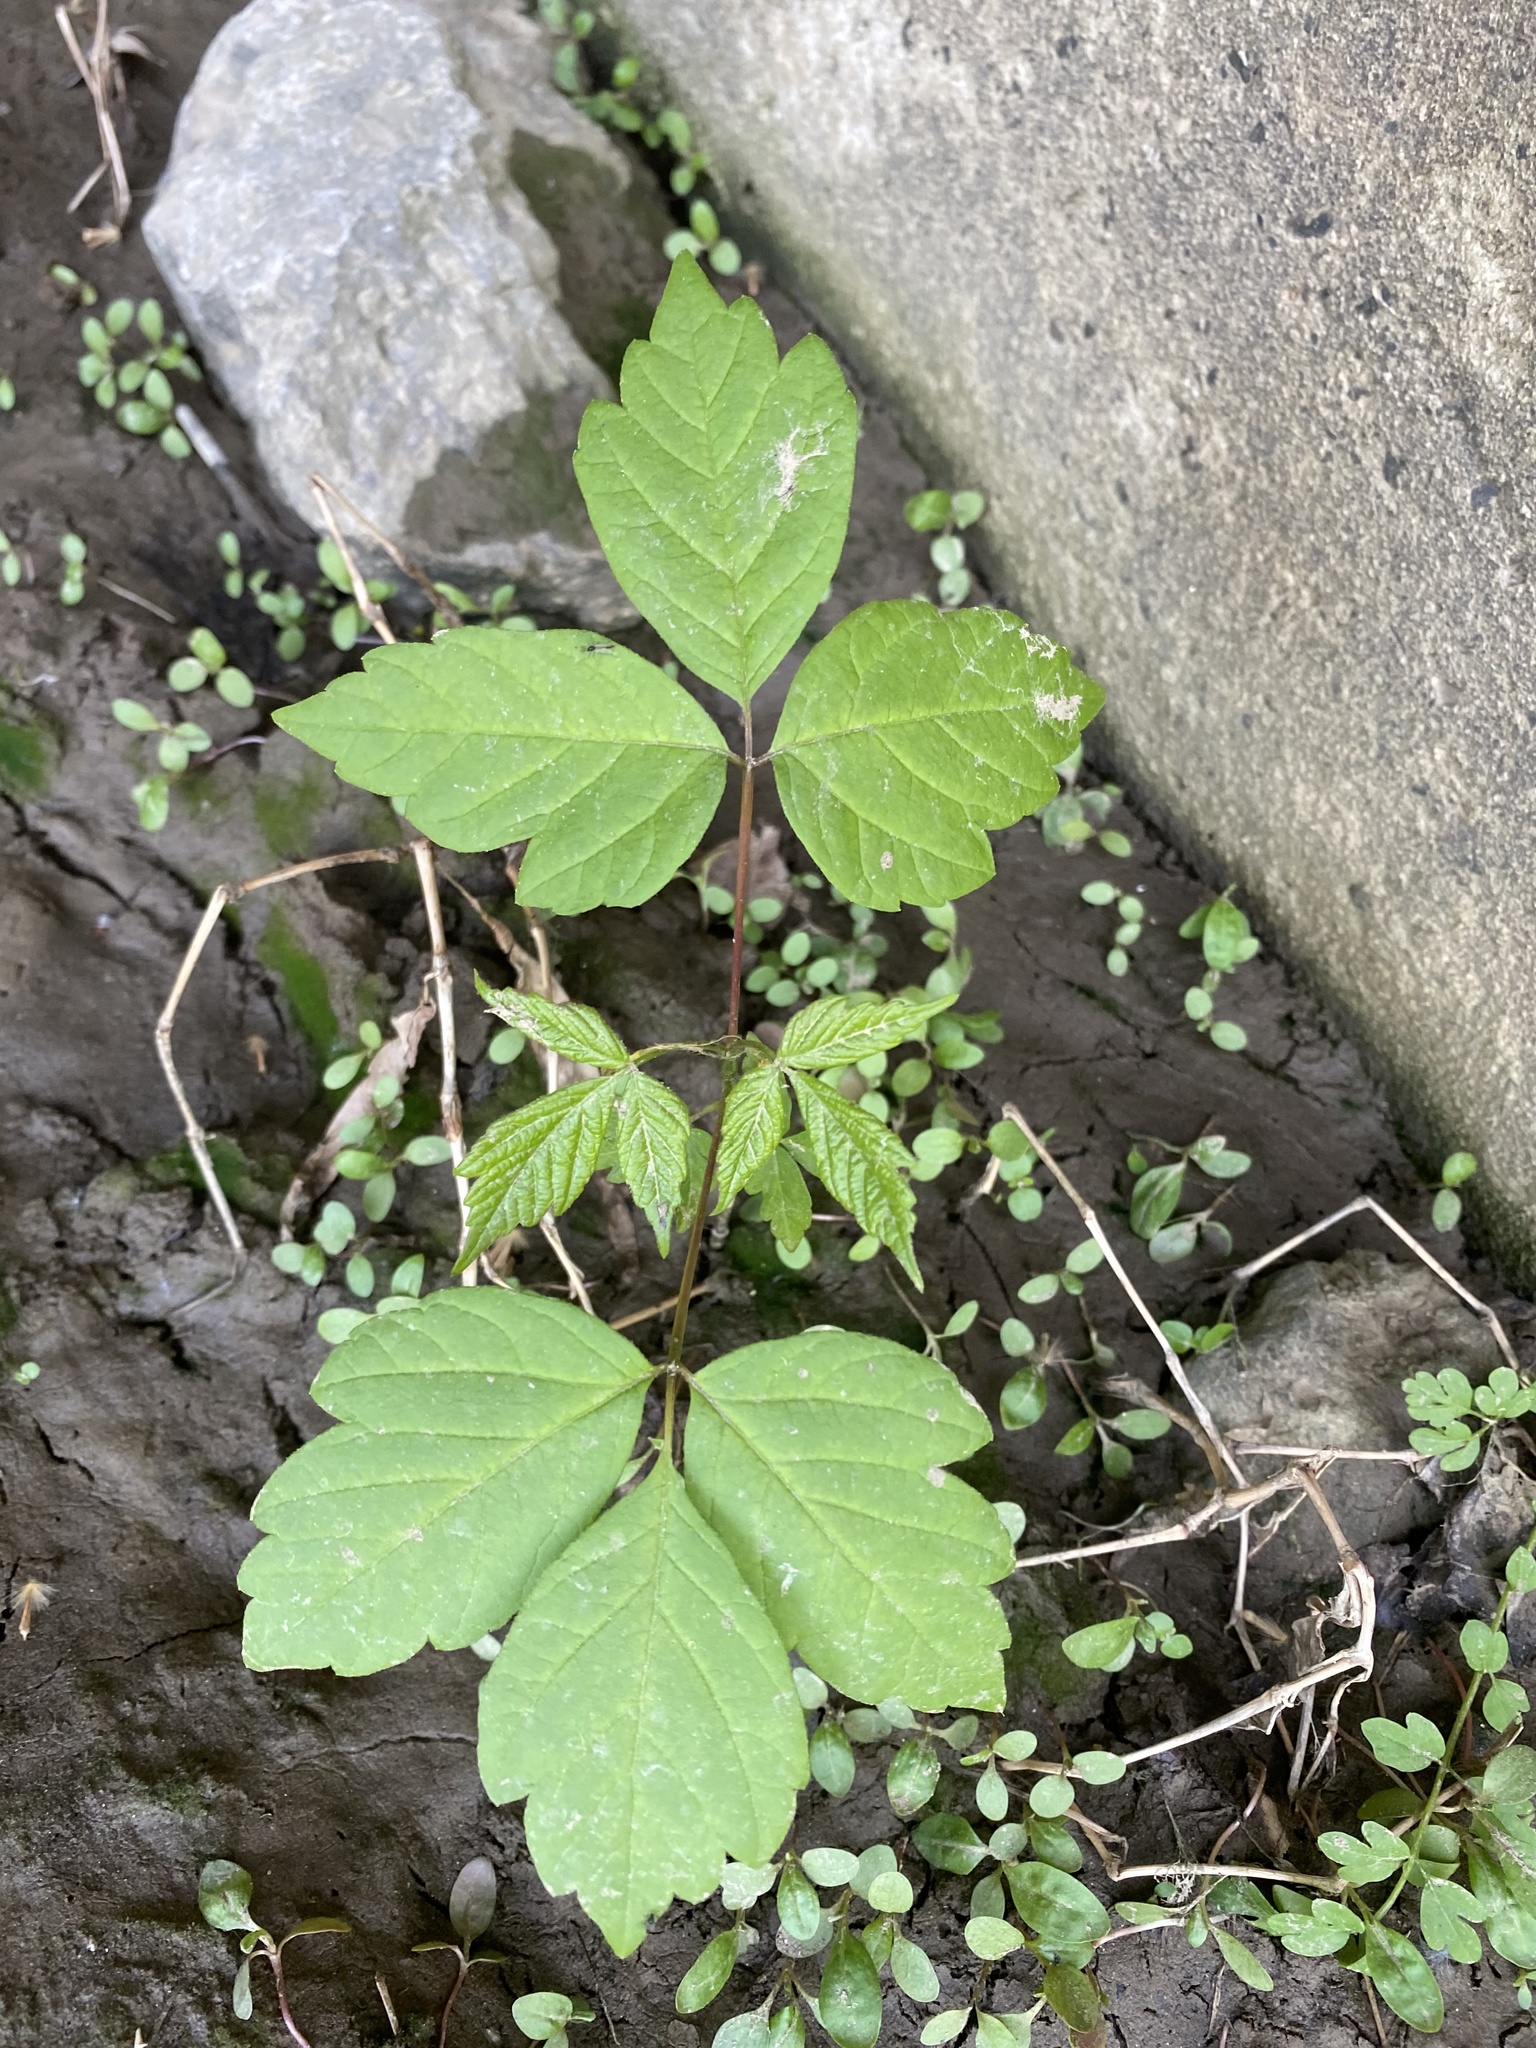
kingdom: Plantae
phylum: Tracheophyta
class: Magnoliopsida
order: Sapindales
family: Anacardiaceae
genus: Toxicodendron
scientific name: Toxicodendron radicans
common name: Poison ivy
